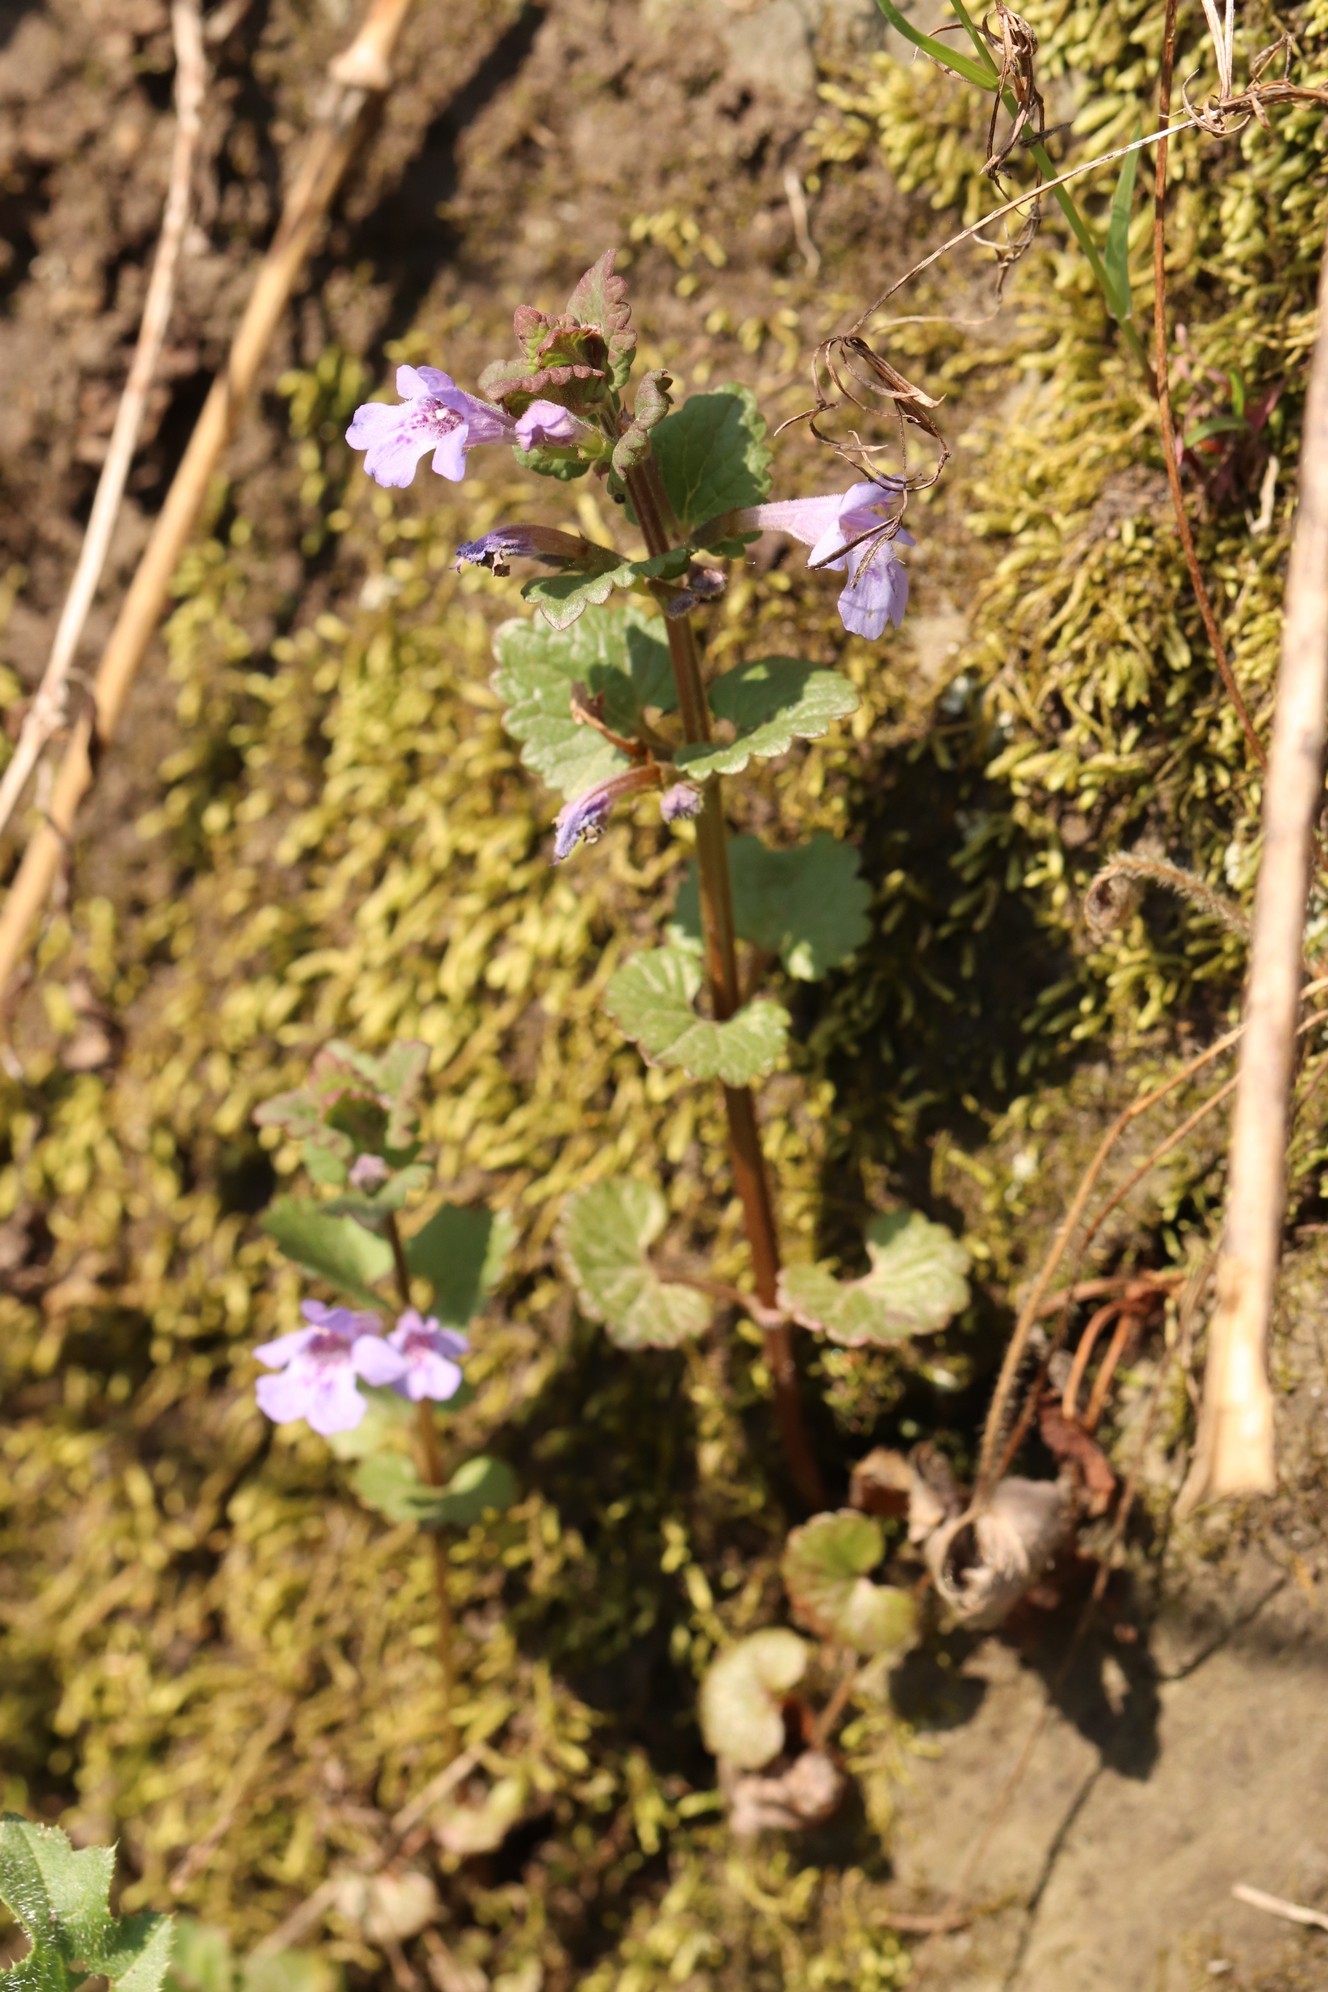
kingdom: Plantae
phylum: Tracheophyta
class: Magnoliopsida
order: Lamiales
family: Lamiaceae
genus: Glechoma
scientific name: Glechoma hederacea
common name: Ground ivy
